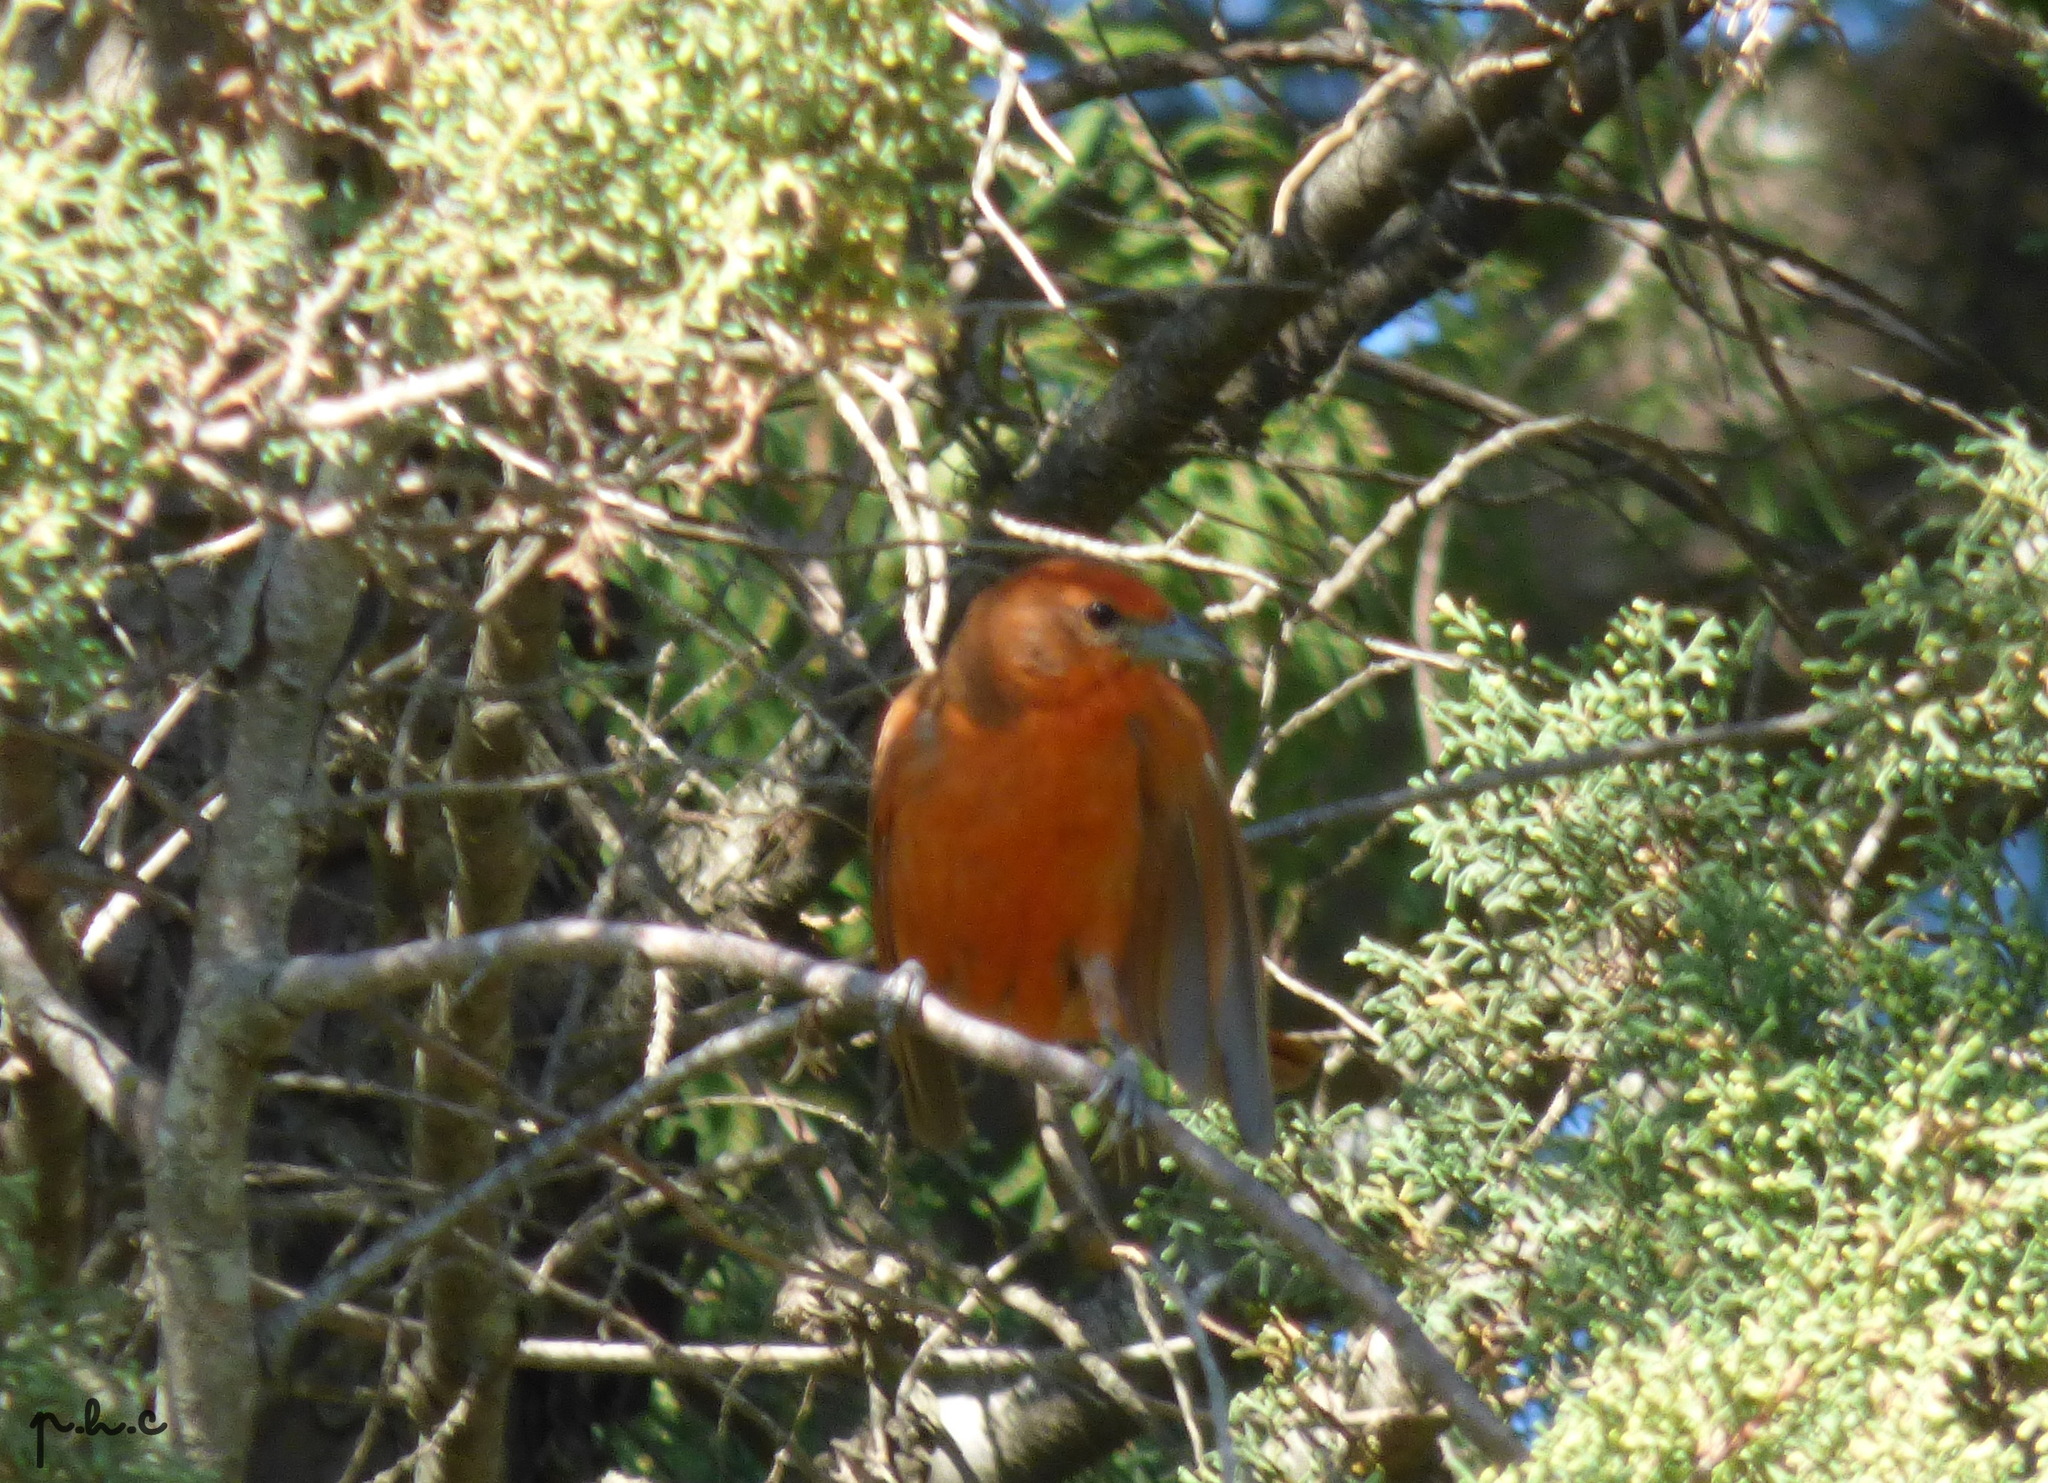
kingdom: Animalia
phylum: Chordata
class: Aves
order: Passeriformes
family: Cardinalidae
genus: Piranga
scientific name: Piranga flava
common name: Red tanager
